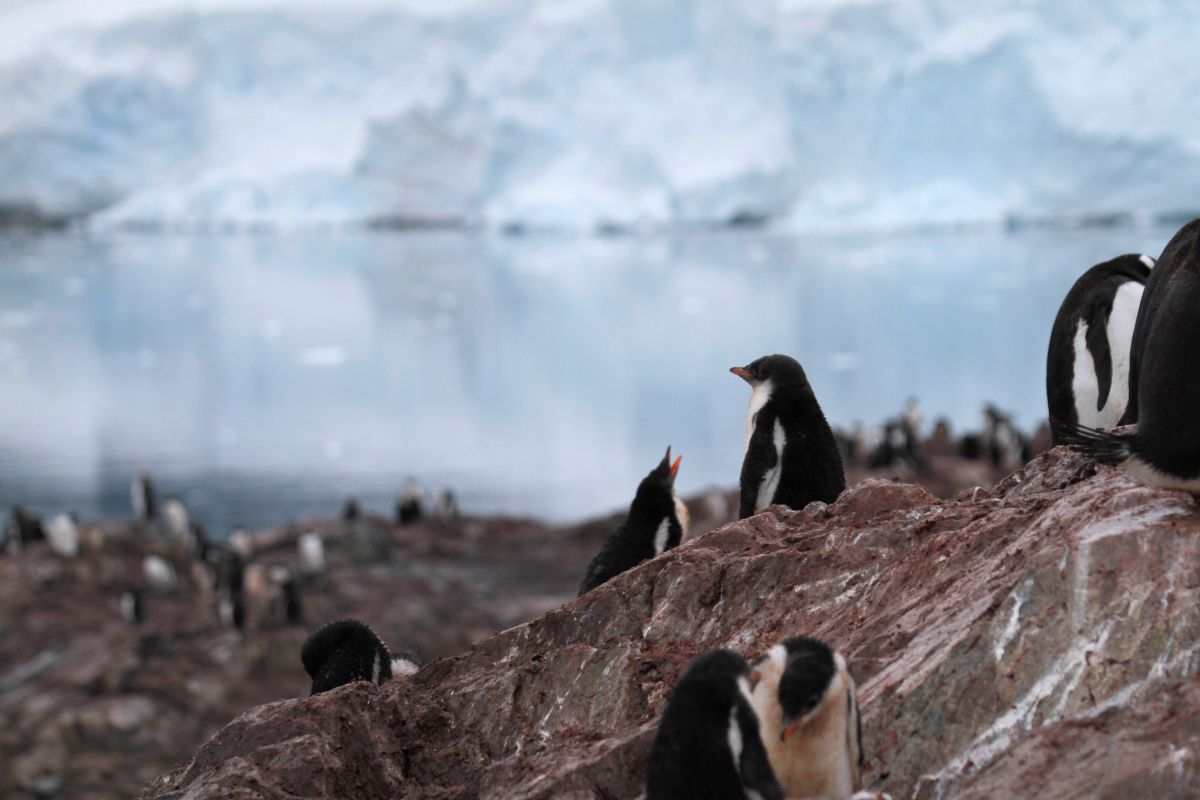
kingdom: Animalia
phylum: Chordata
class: Aves
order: Sphenisciformes
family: Spheniscidae
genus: Pygoscelis
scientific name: Pygoscelis papua
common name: Gentoo penguin
